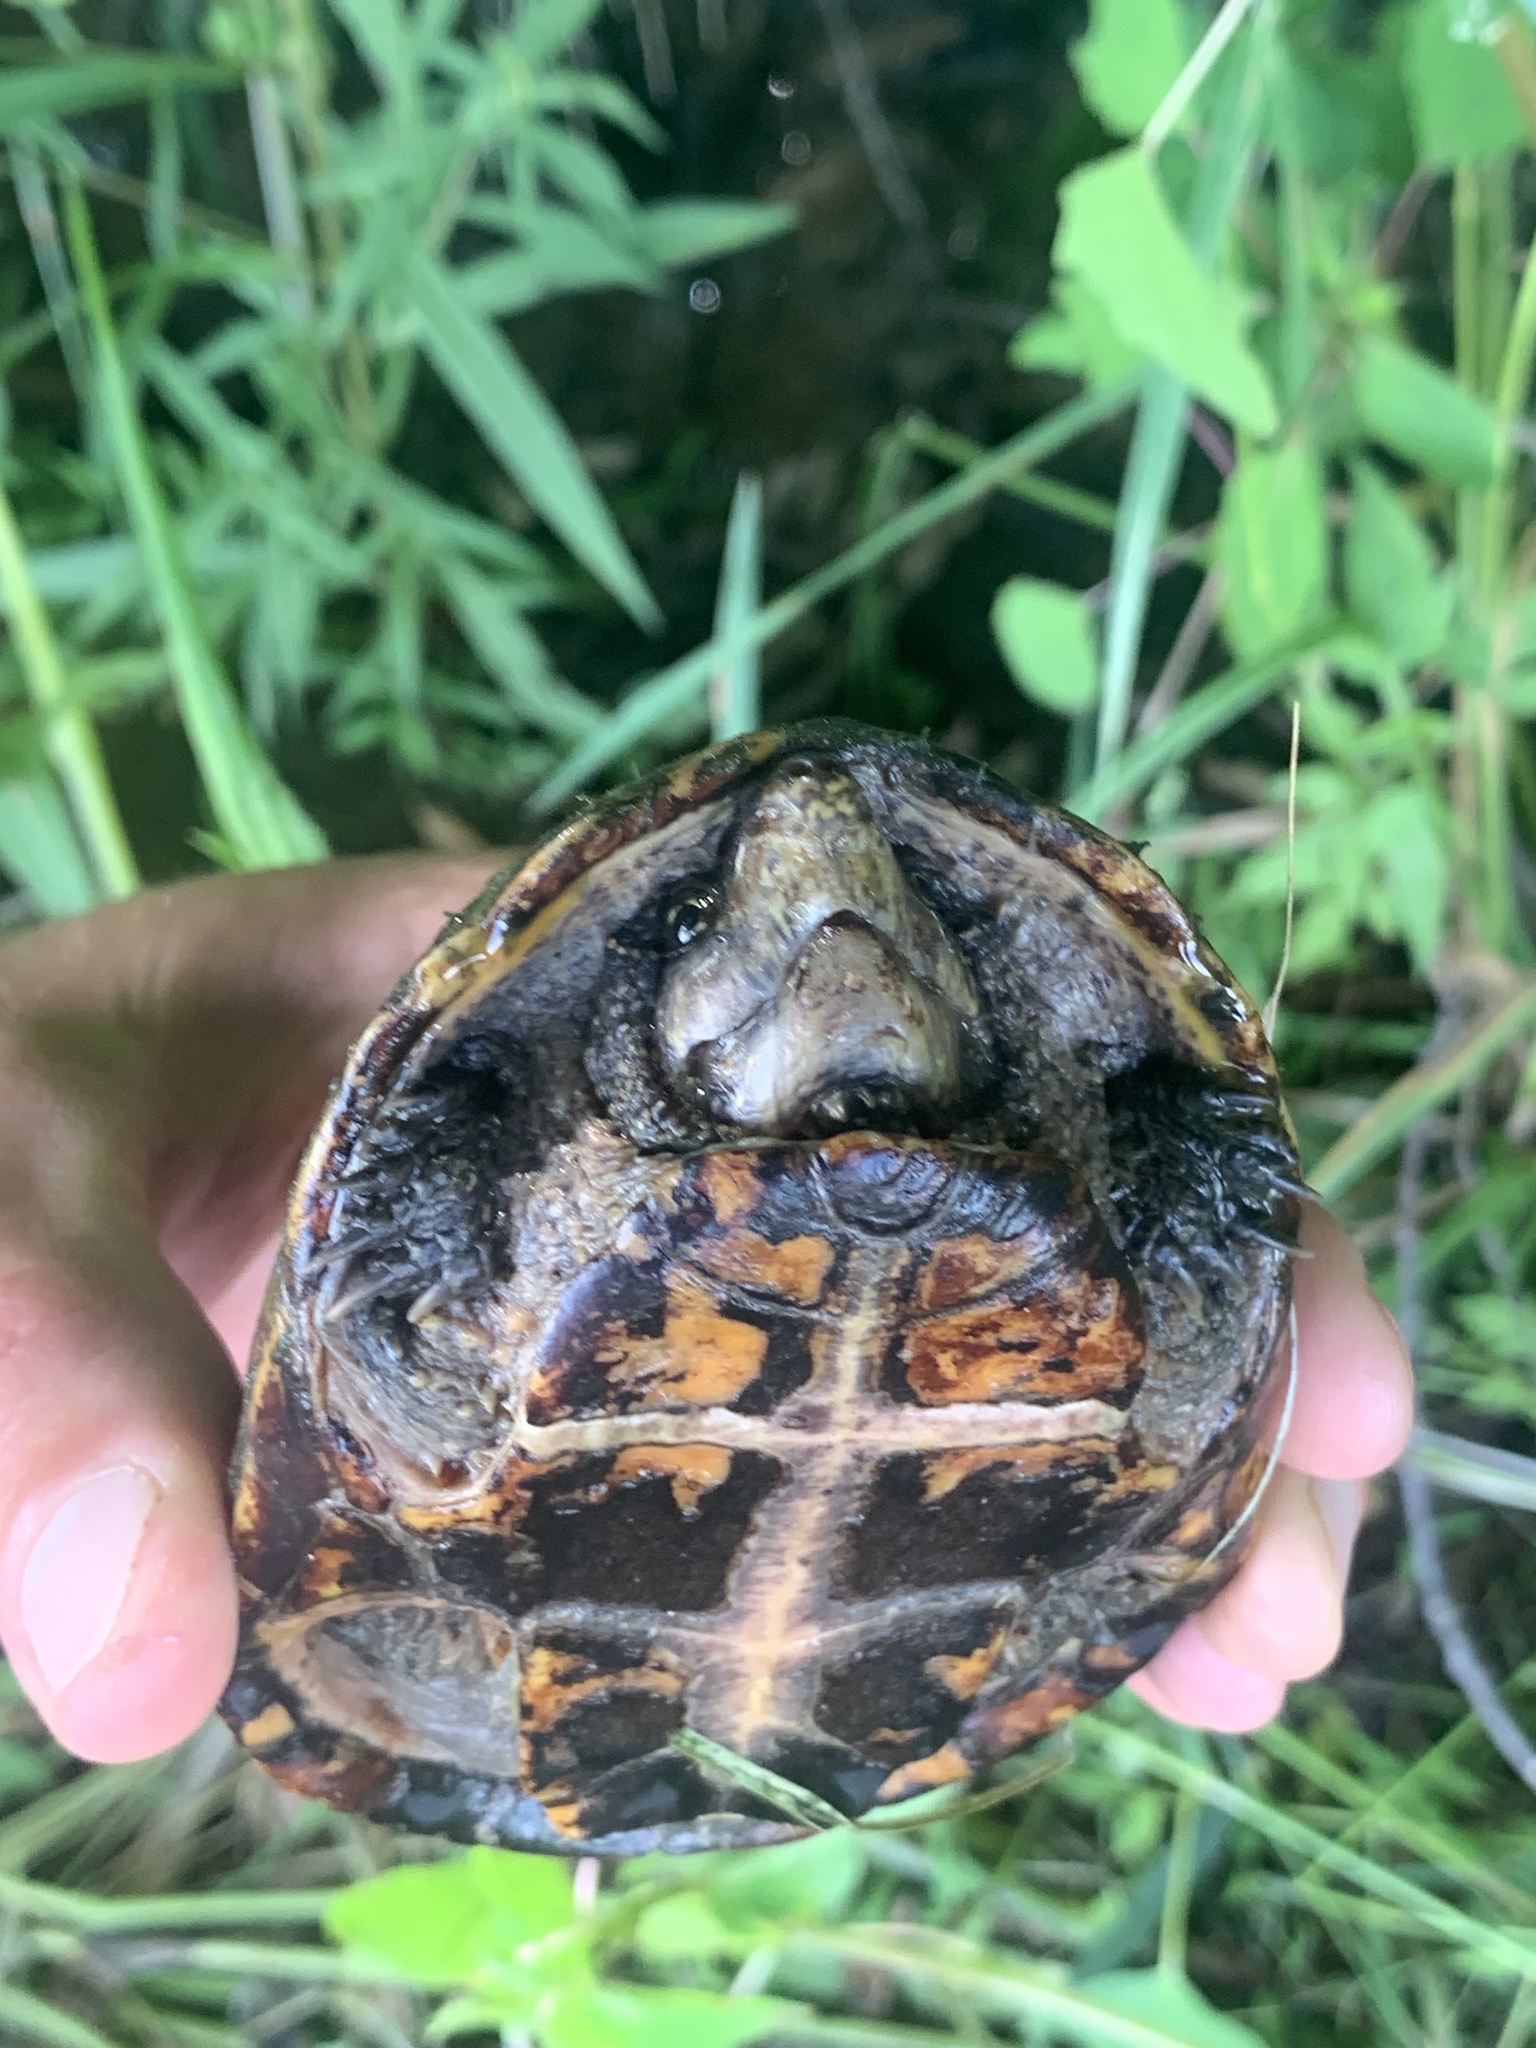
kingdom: Animalia
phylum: Chordata
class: Testudines
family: Kinosternidae
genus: Sternotherus
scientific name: Sternotherus odoratus
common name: Common musk turtle
